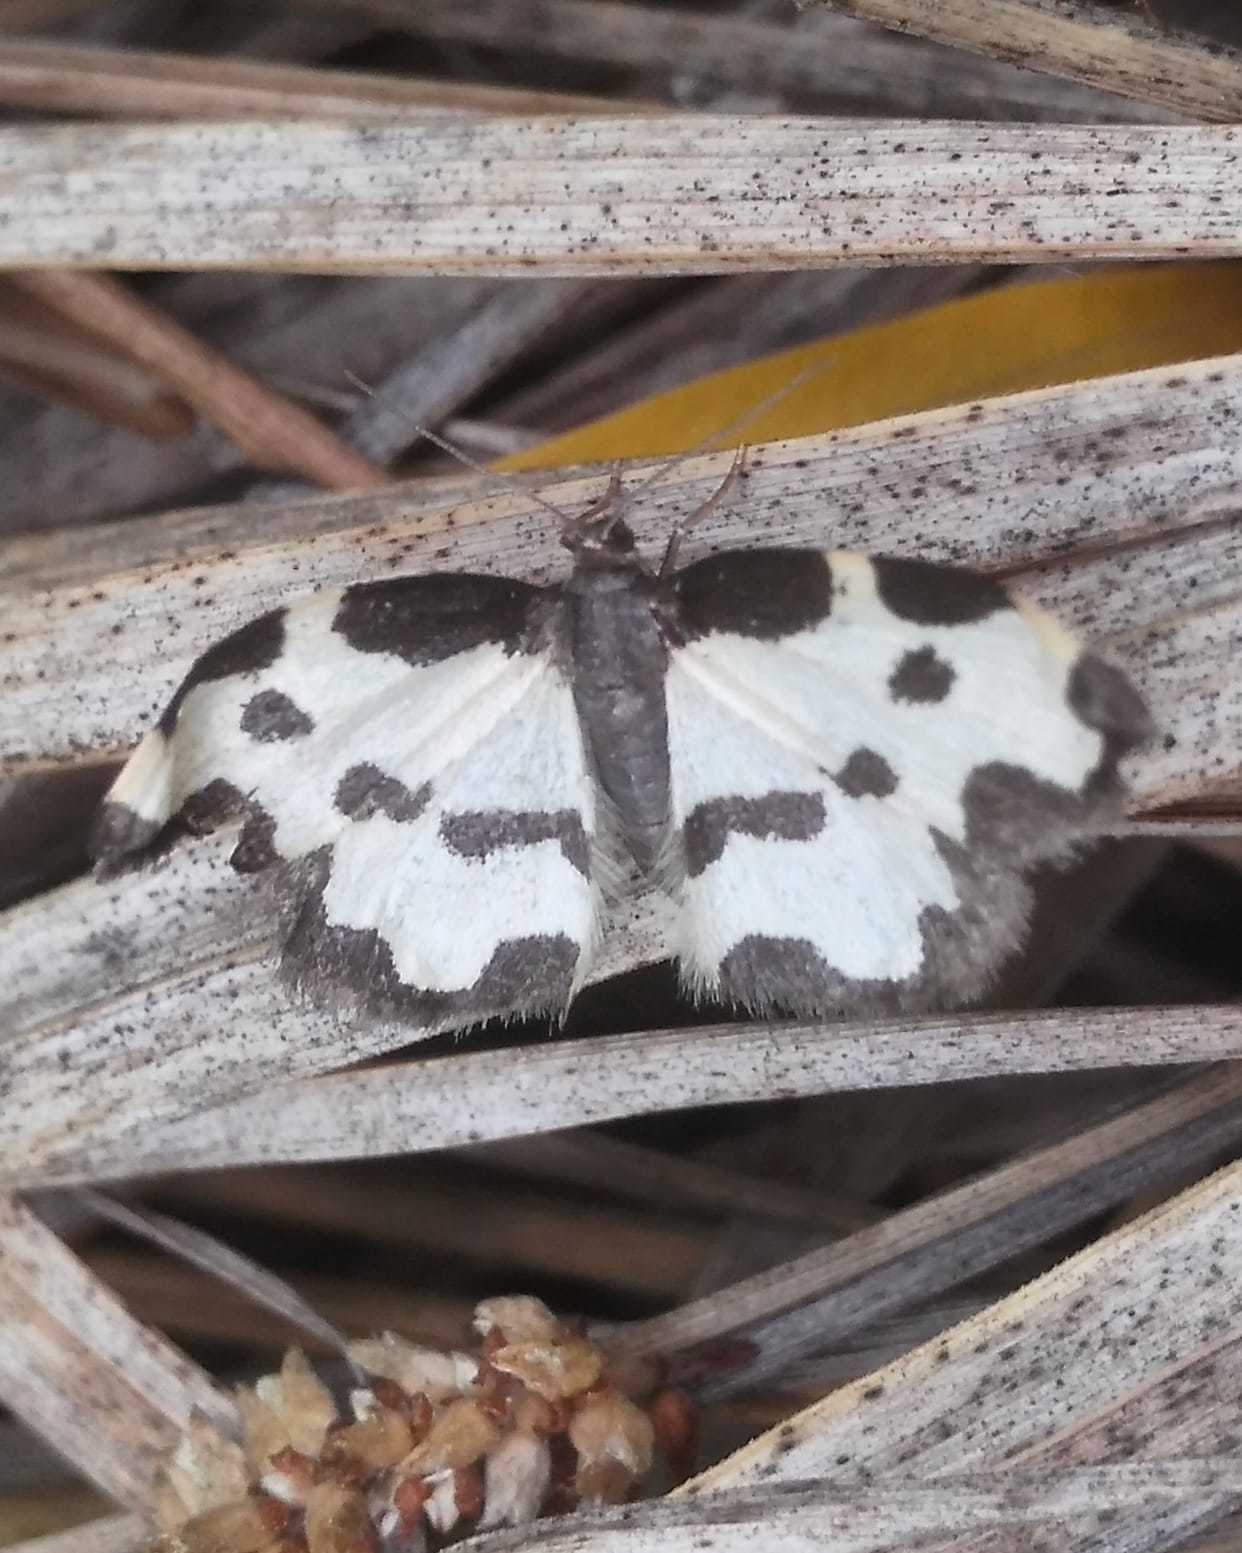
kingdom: Animalia
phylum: Arthropoda
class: Insecta
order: Lepidoptera
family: Geometridae
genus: Lomaspilis
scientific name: Lomaspilis marginata
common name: Clouded border
